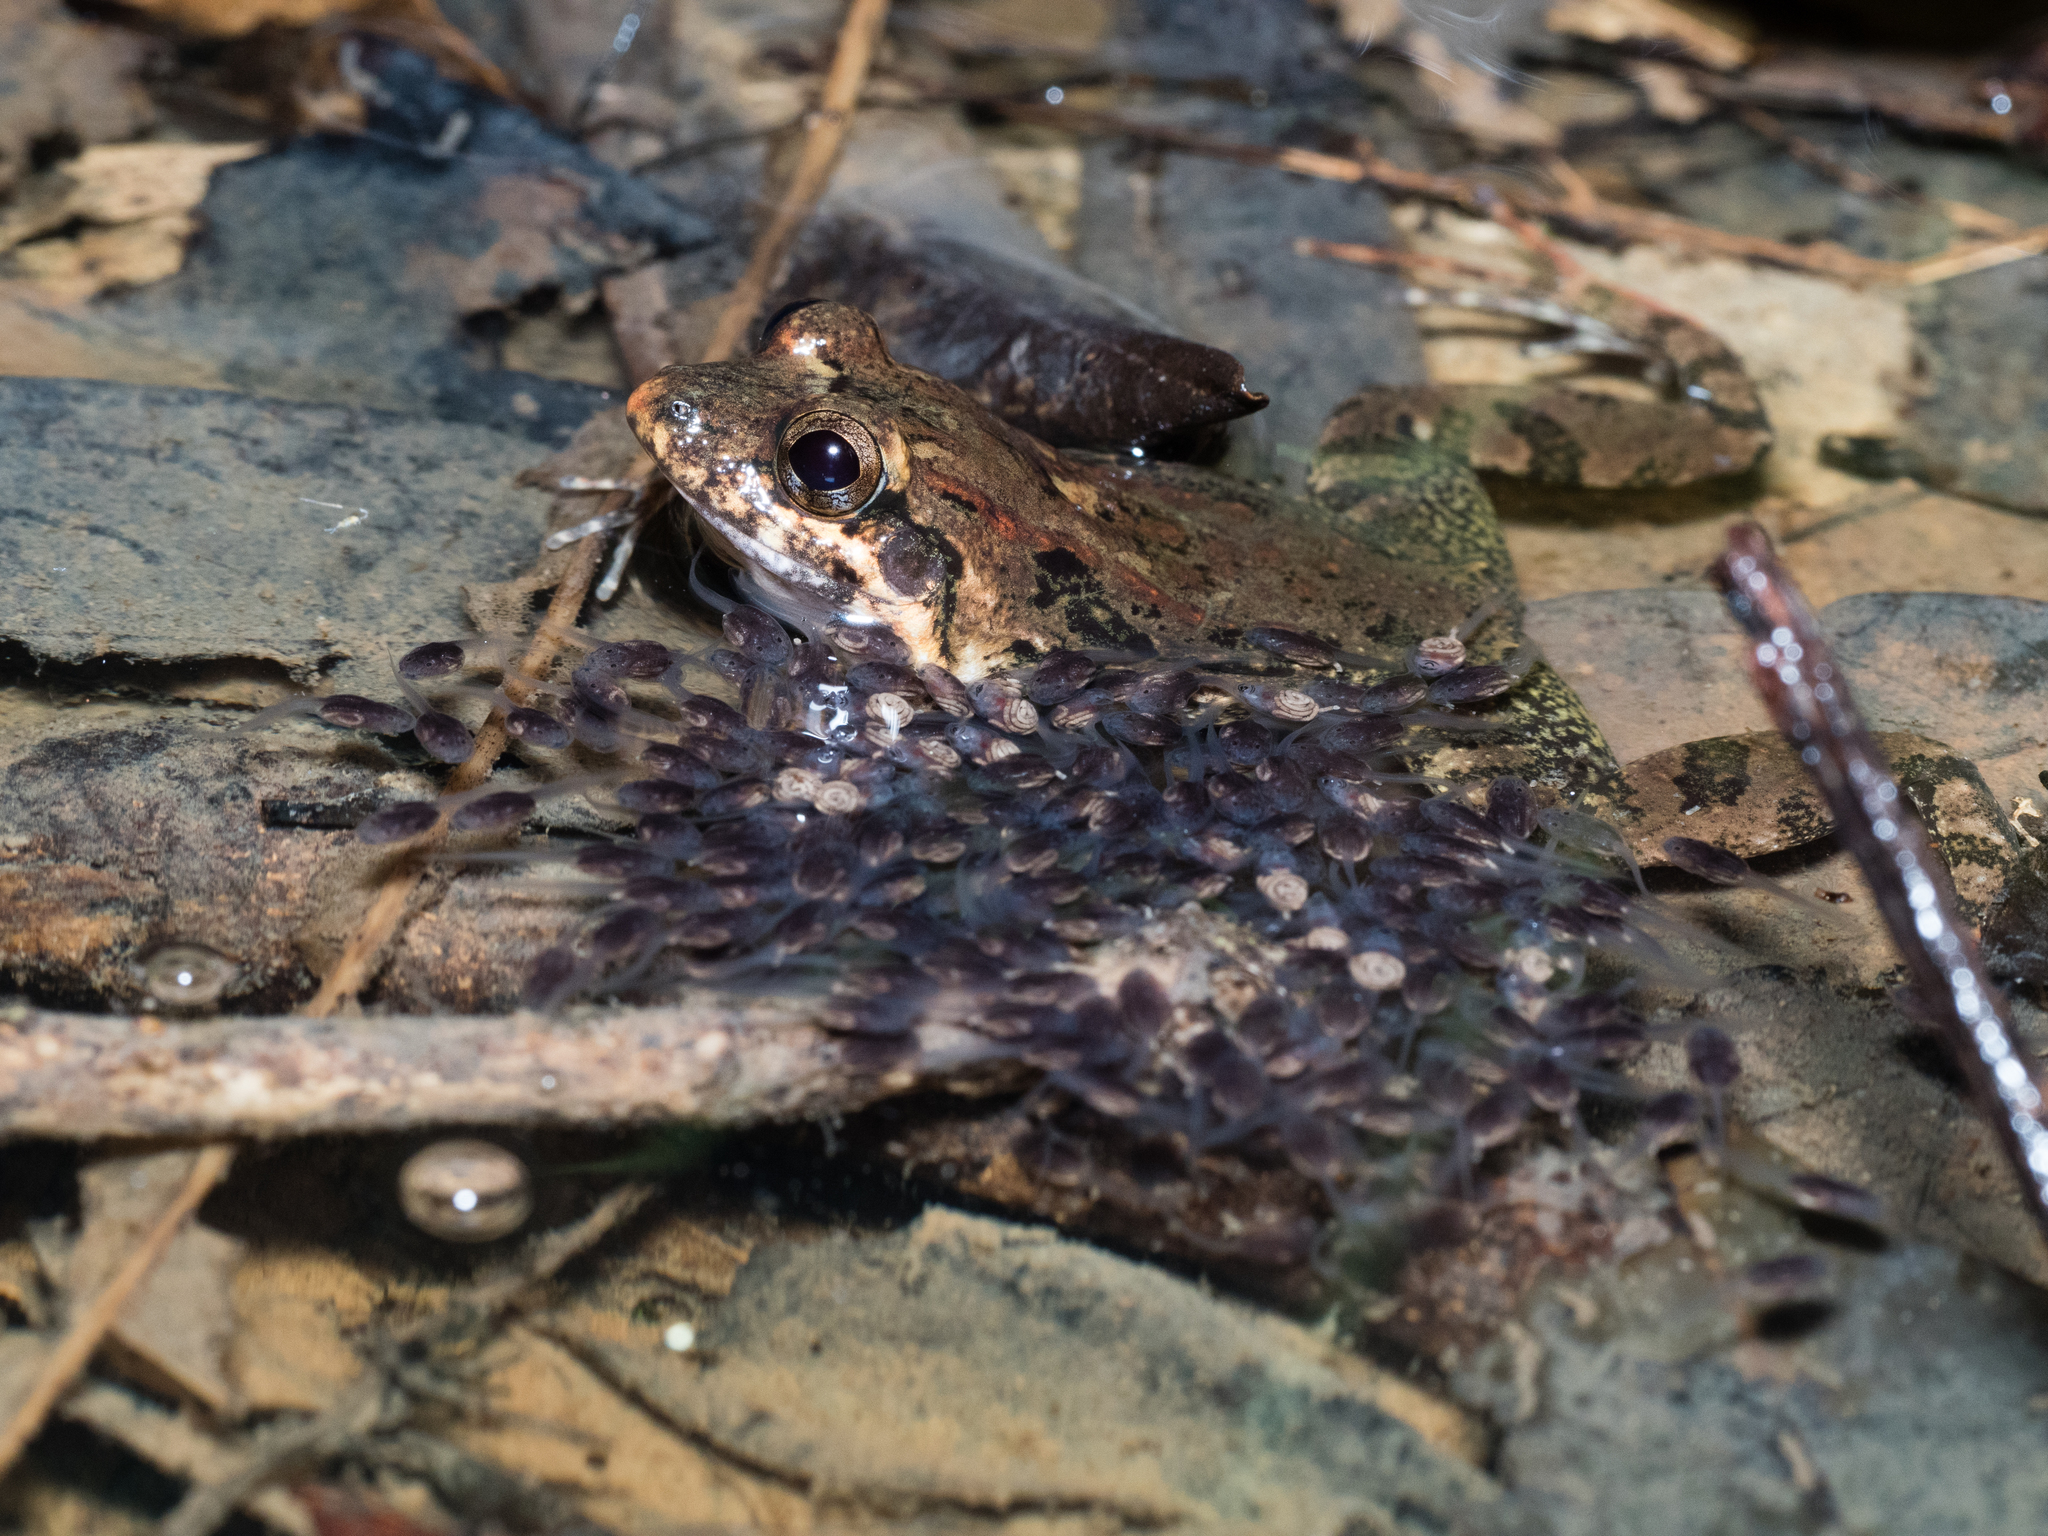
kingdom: Animalia
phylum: Chordata
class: Amphibia
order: Anura
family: Leptodactylidae
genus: Leptodactylus
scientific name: Leptodactylus petersii
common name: Peters' thin-toed frog
